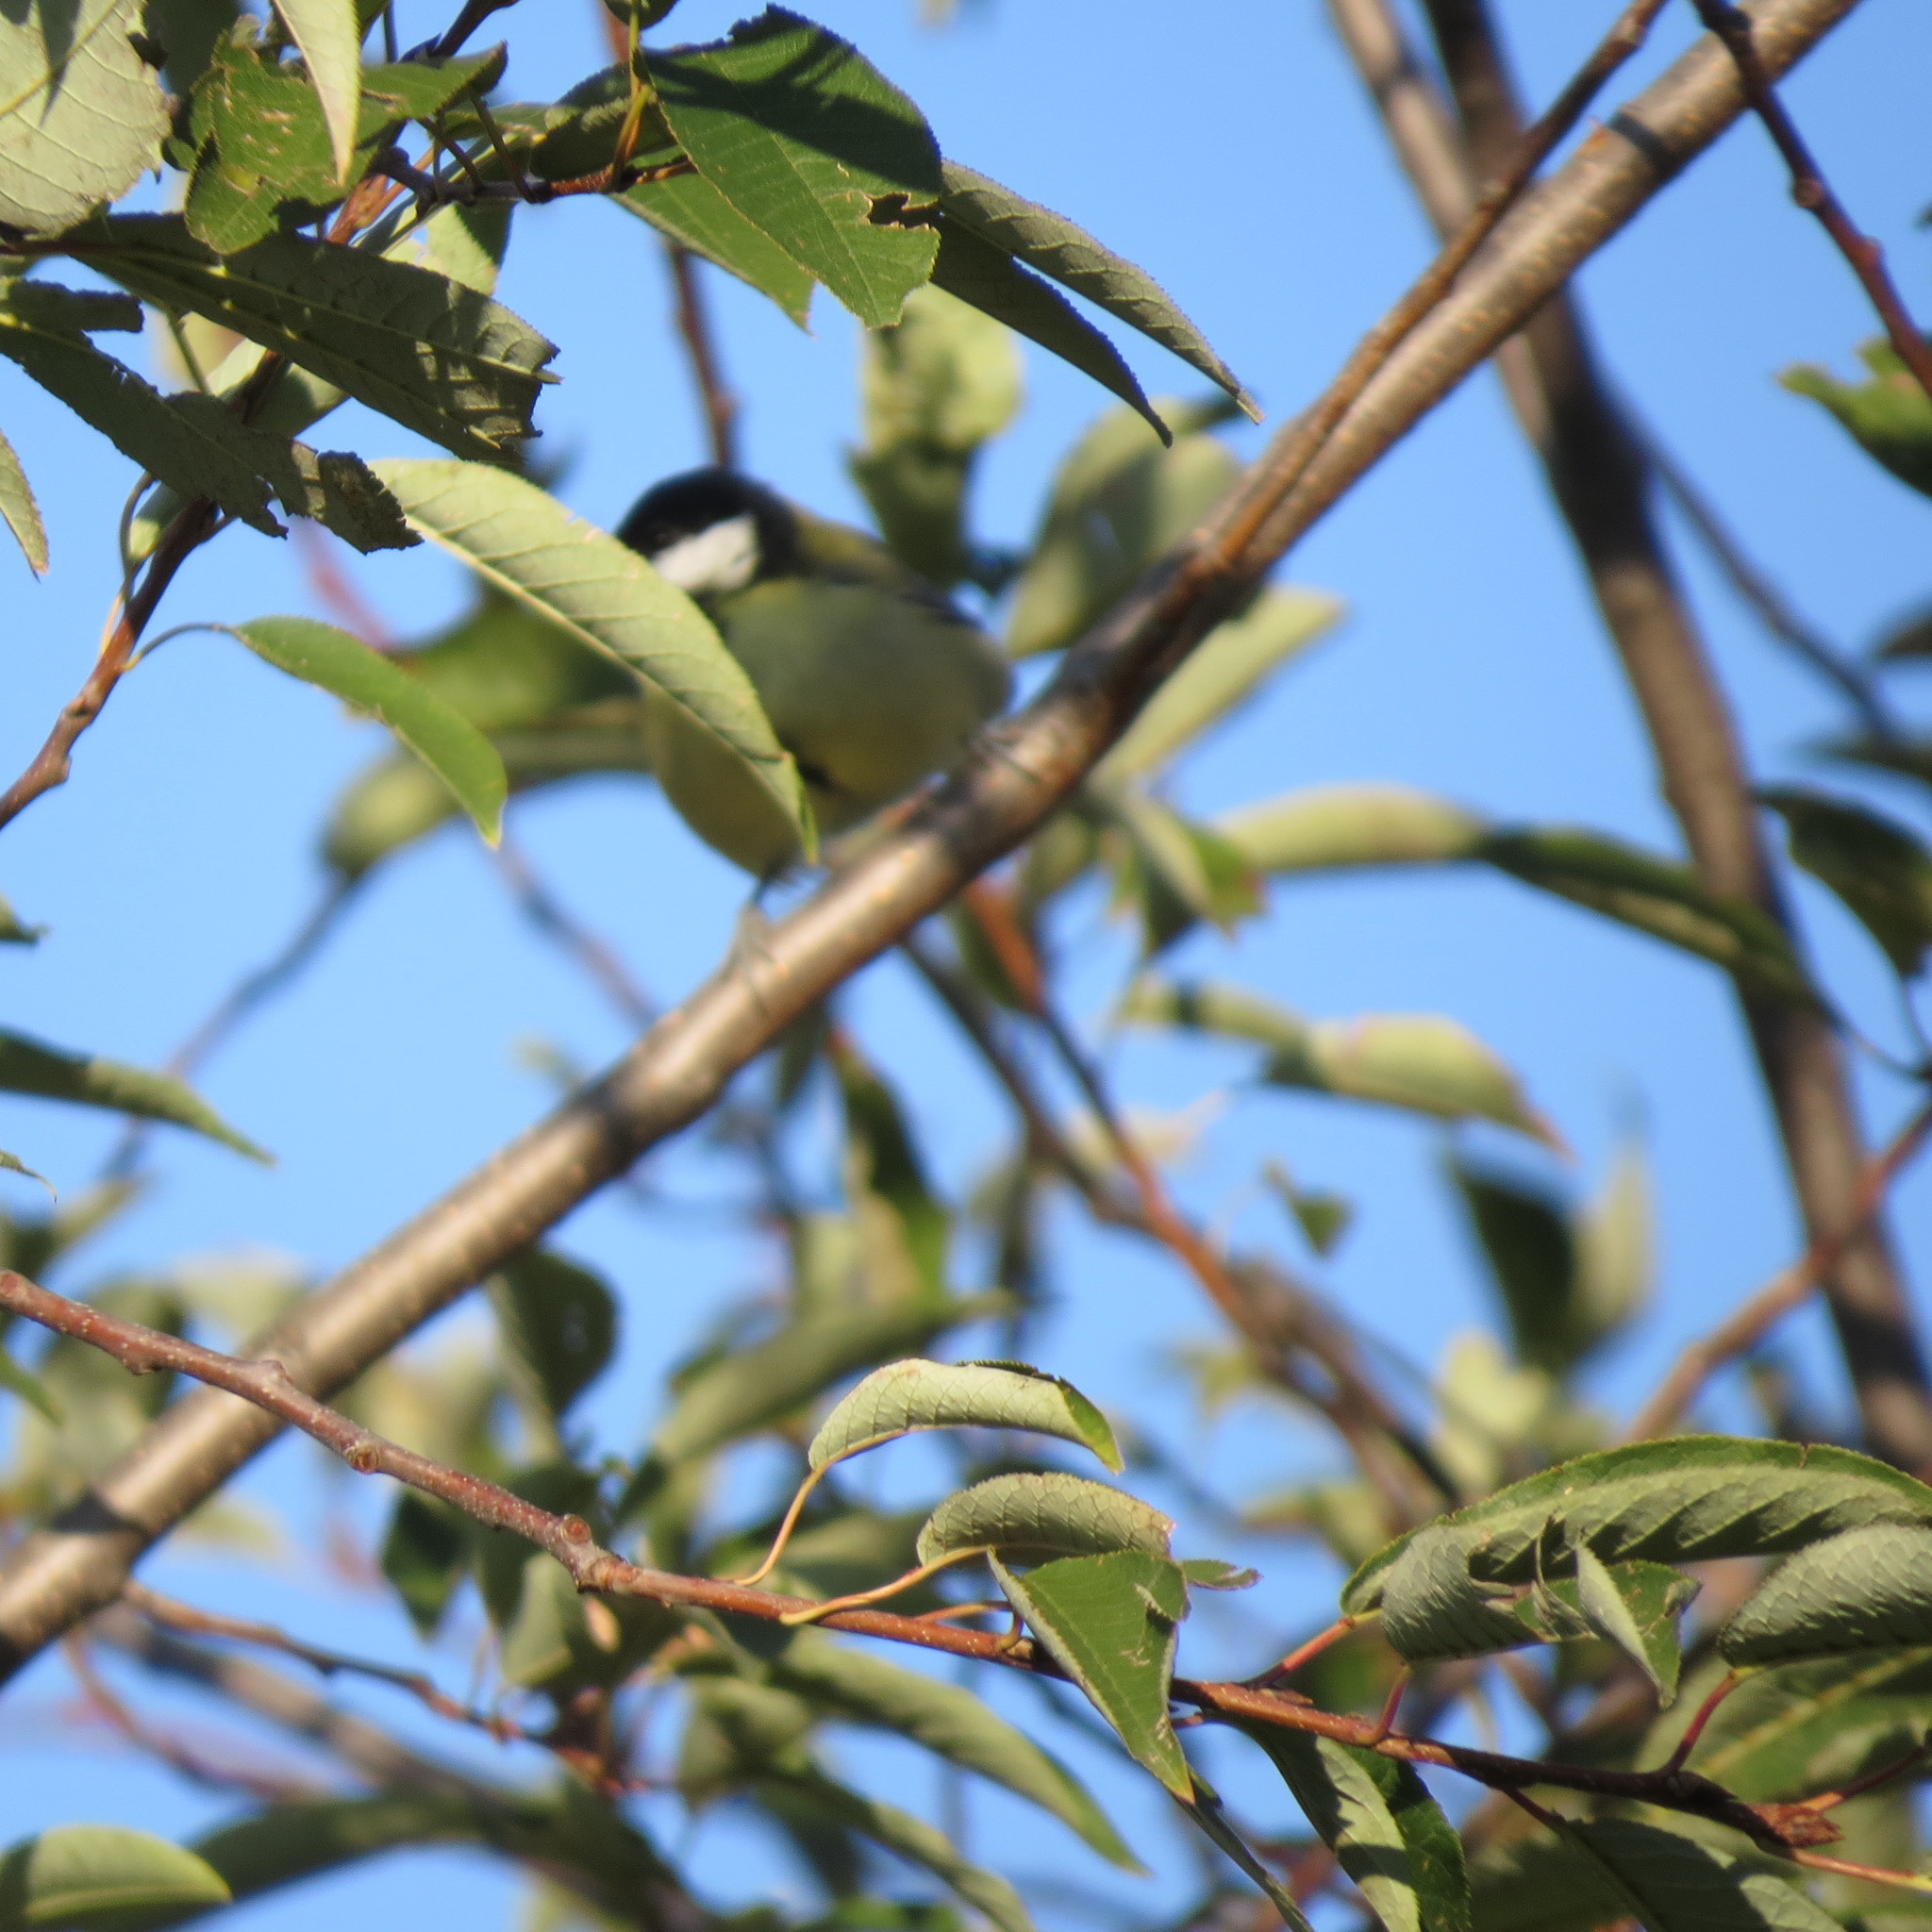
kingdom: Animalia
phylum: Chordata
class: Aves
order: Passeriformes
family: Paridae
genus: Parus
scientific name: Parus major
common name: Great tit
